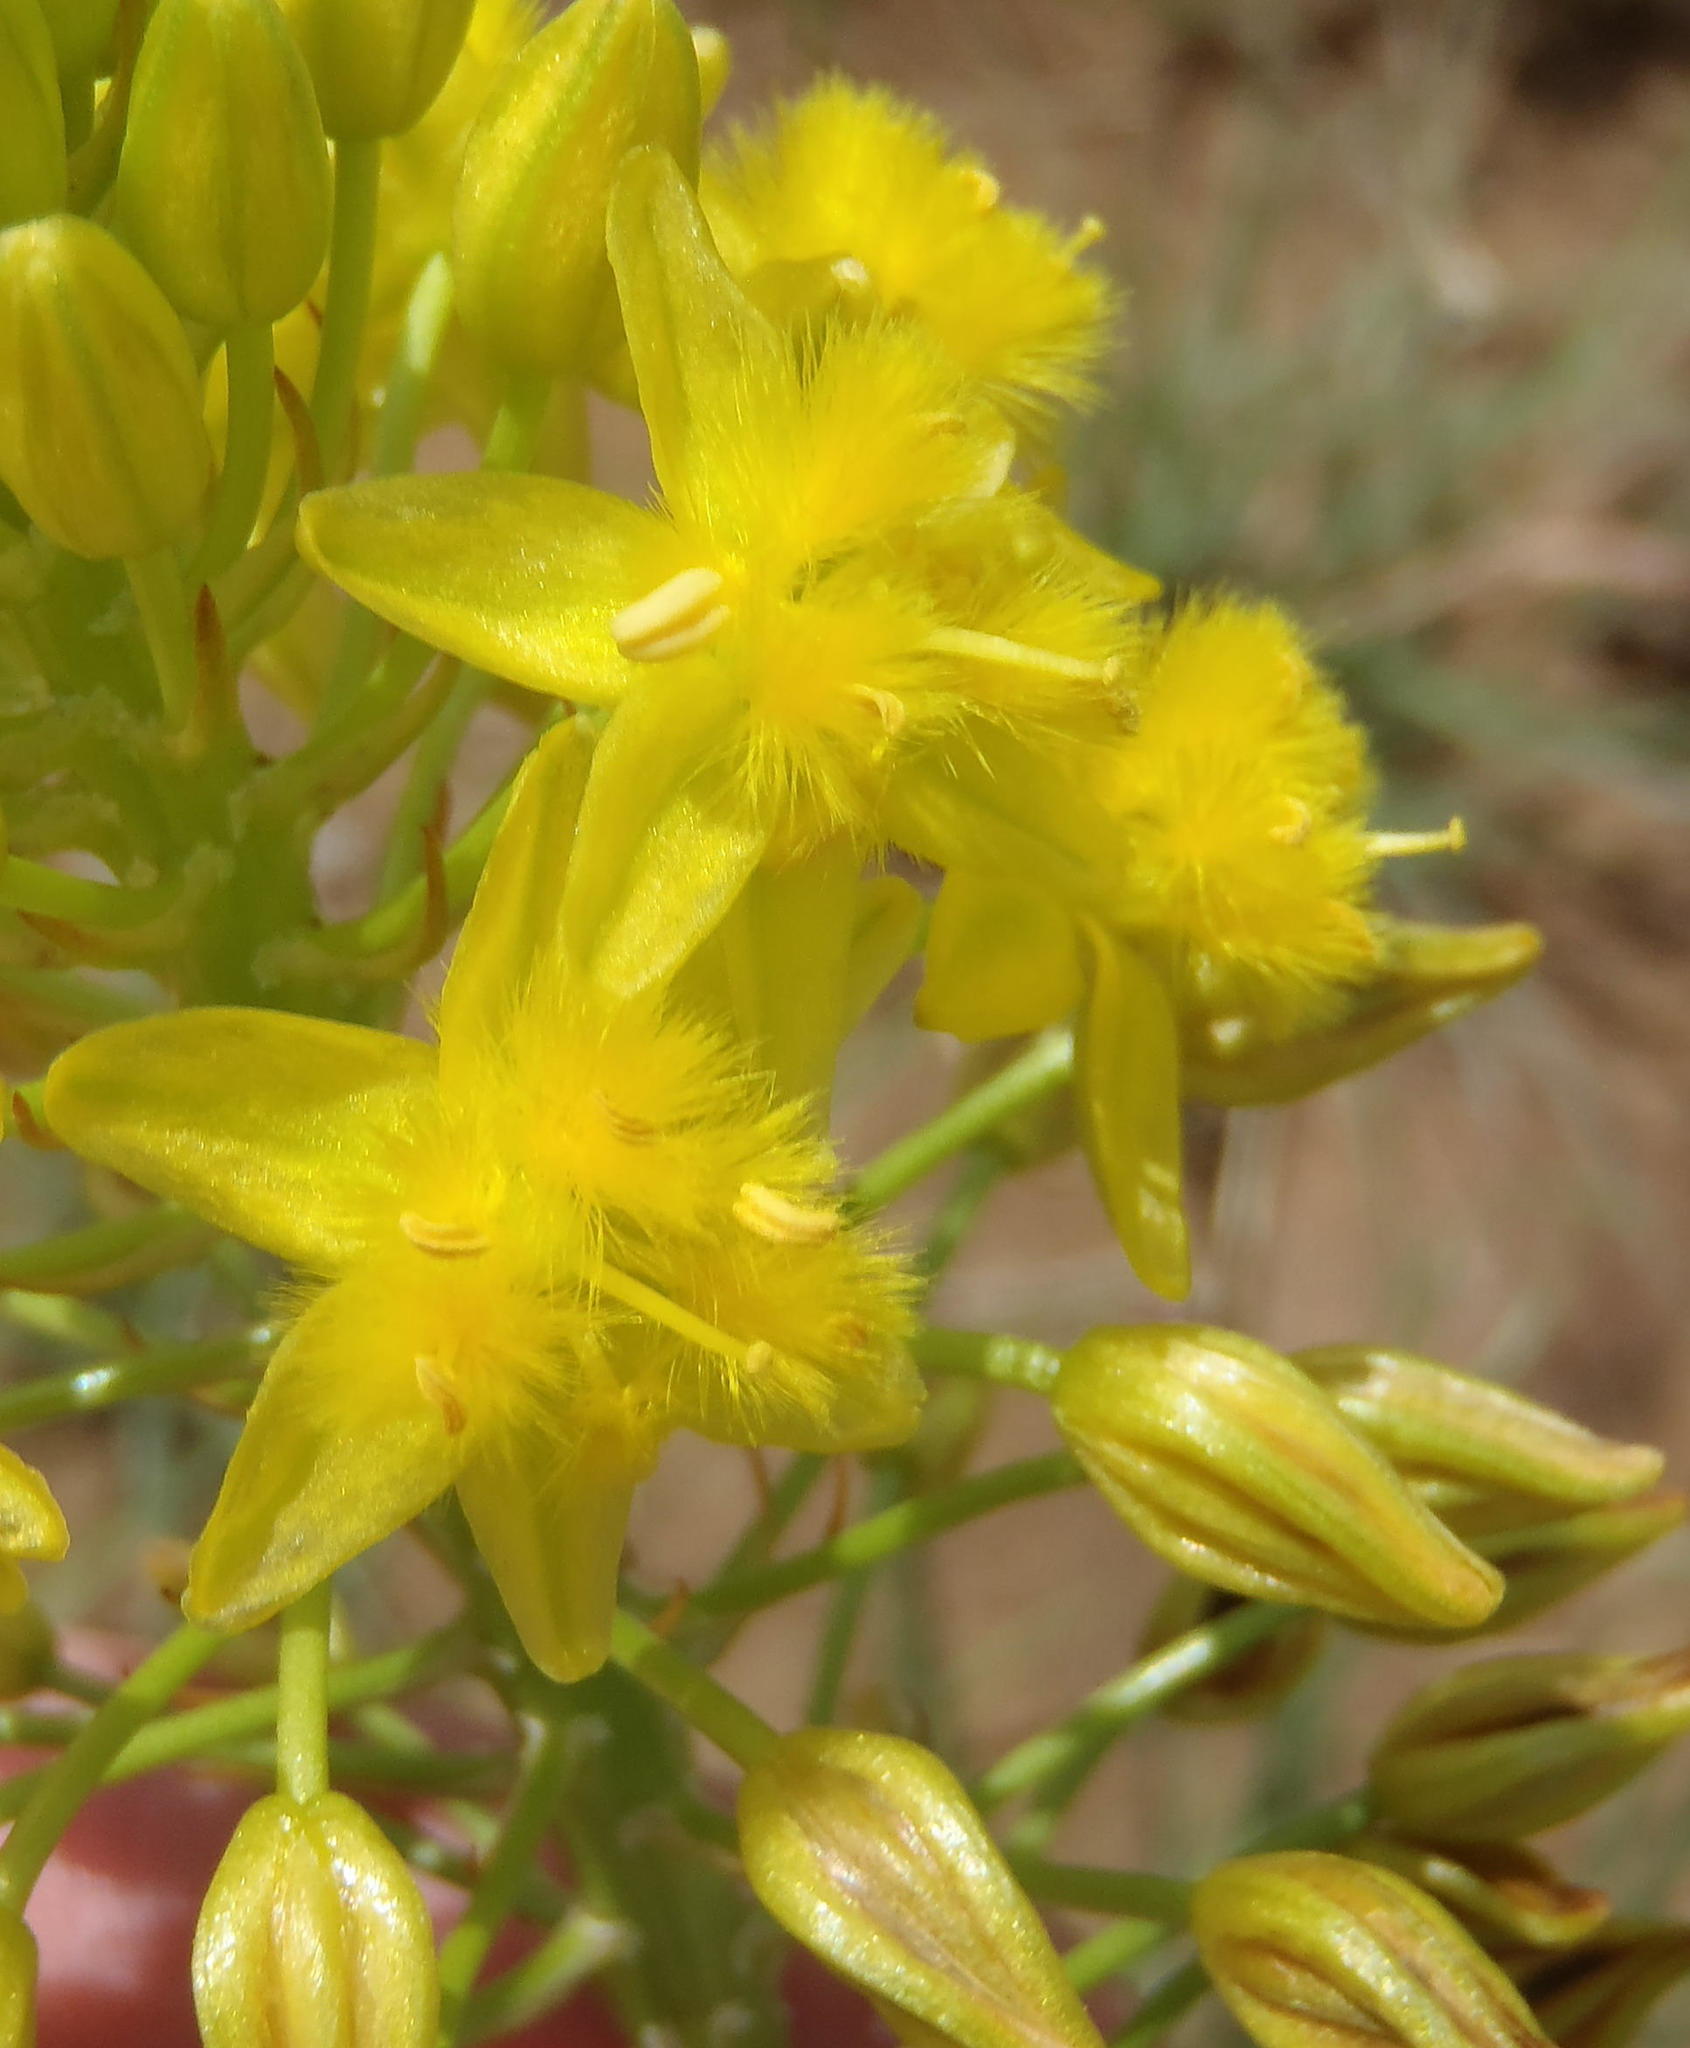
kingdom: Plantae
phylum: Tracheophyta
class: Liliopsida
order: Asparagales
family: Asphodelaceae
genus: Bulbine
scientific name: Bulbine abyssinica
